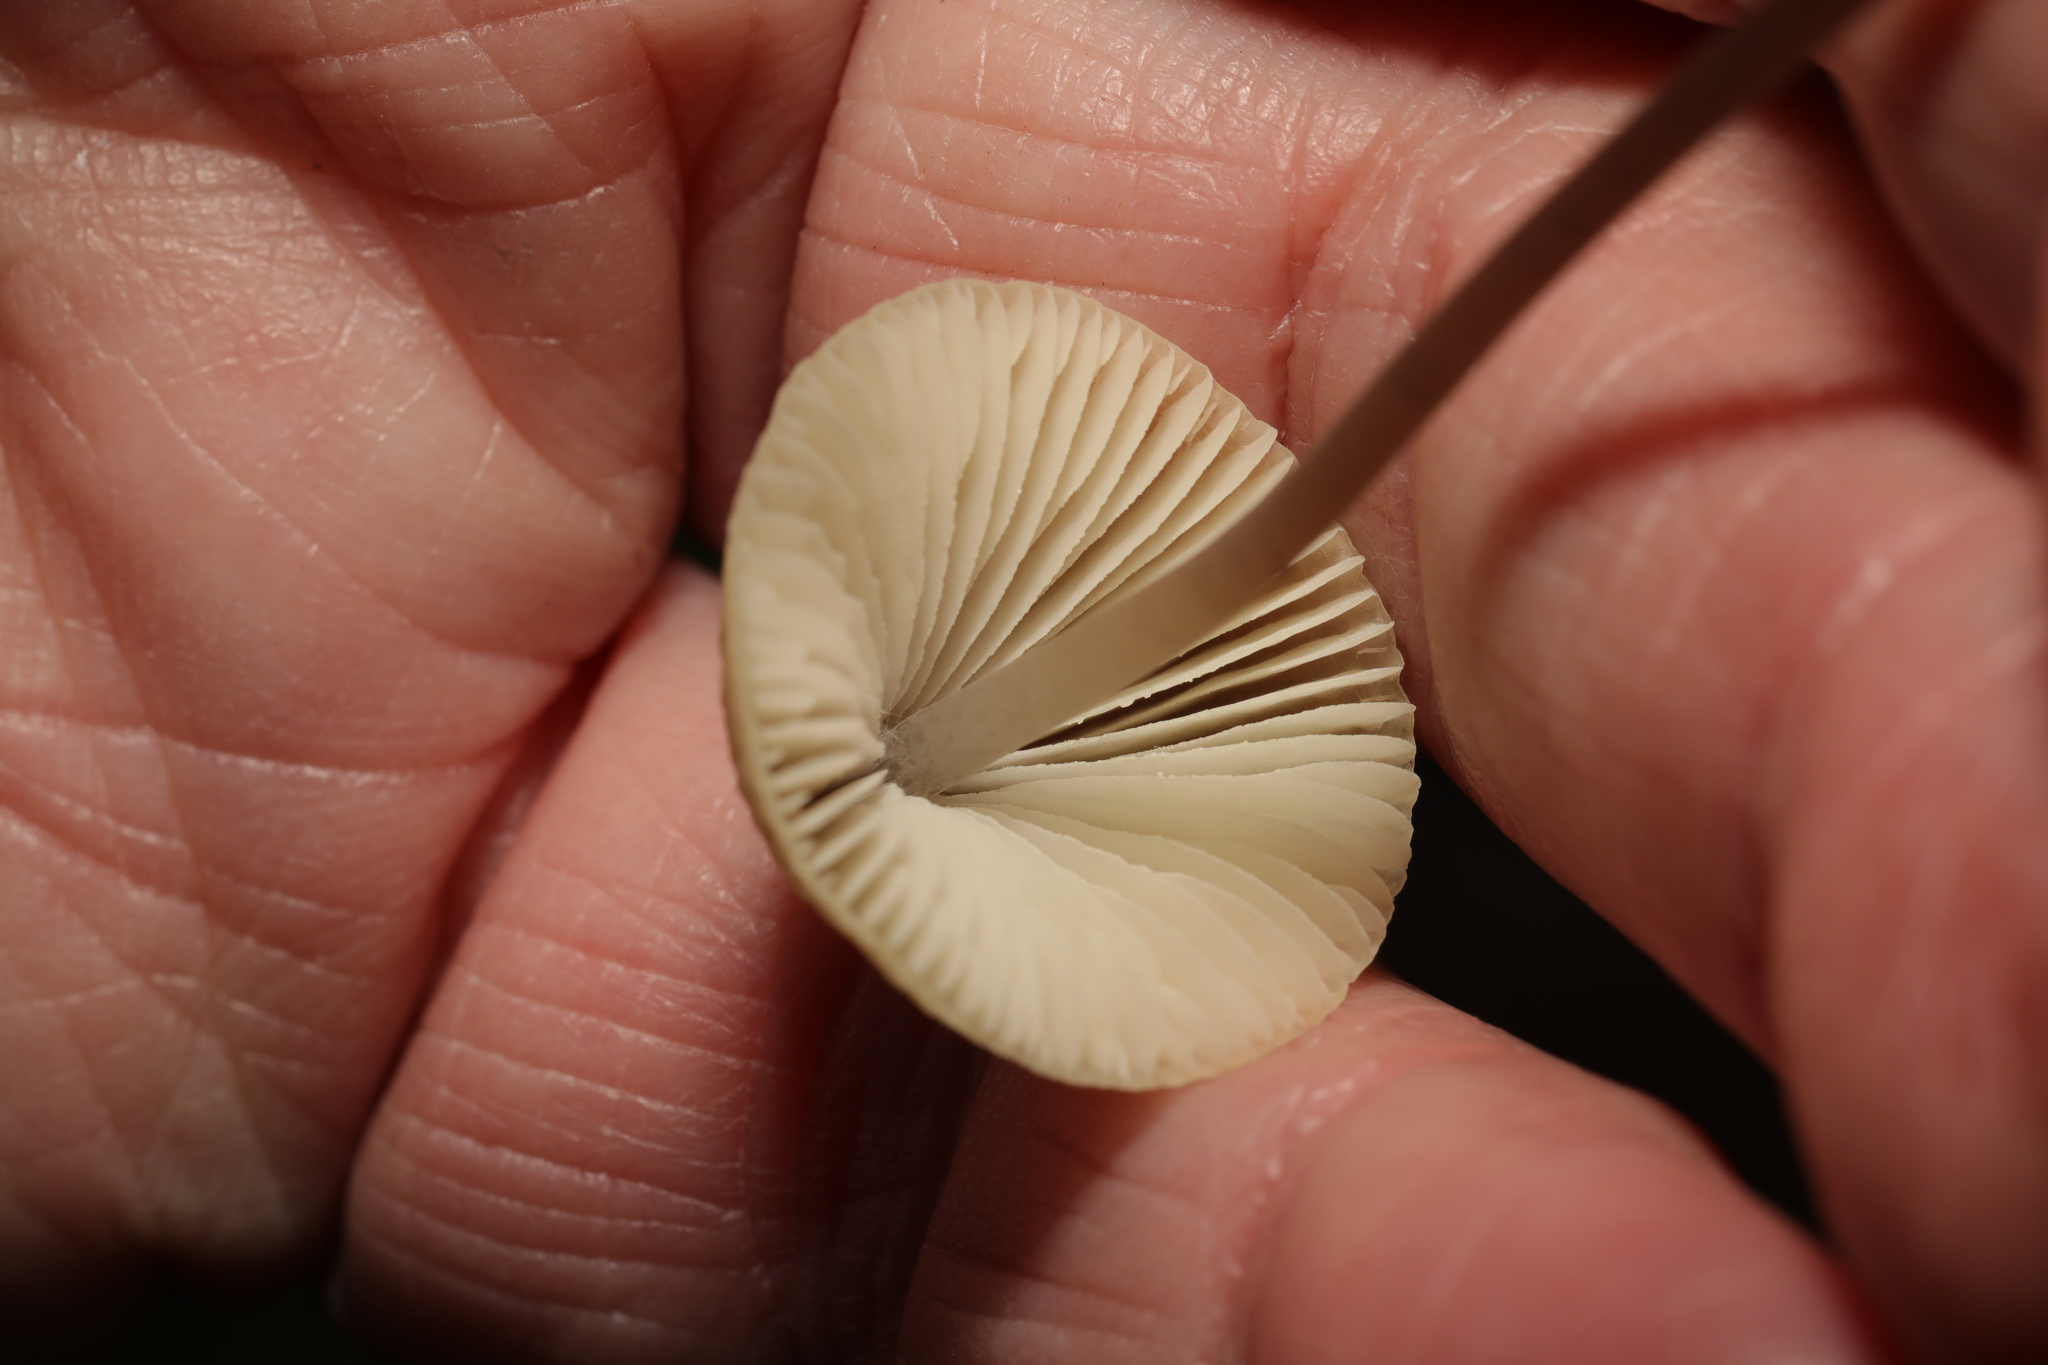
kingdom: Fungi
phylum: Basidiomycota
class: Agaricomycetes
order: Agaricales
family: Mycenaceae
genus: Mycena
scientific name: Mycena
